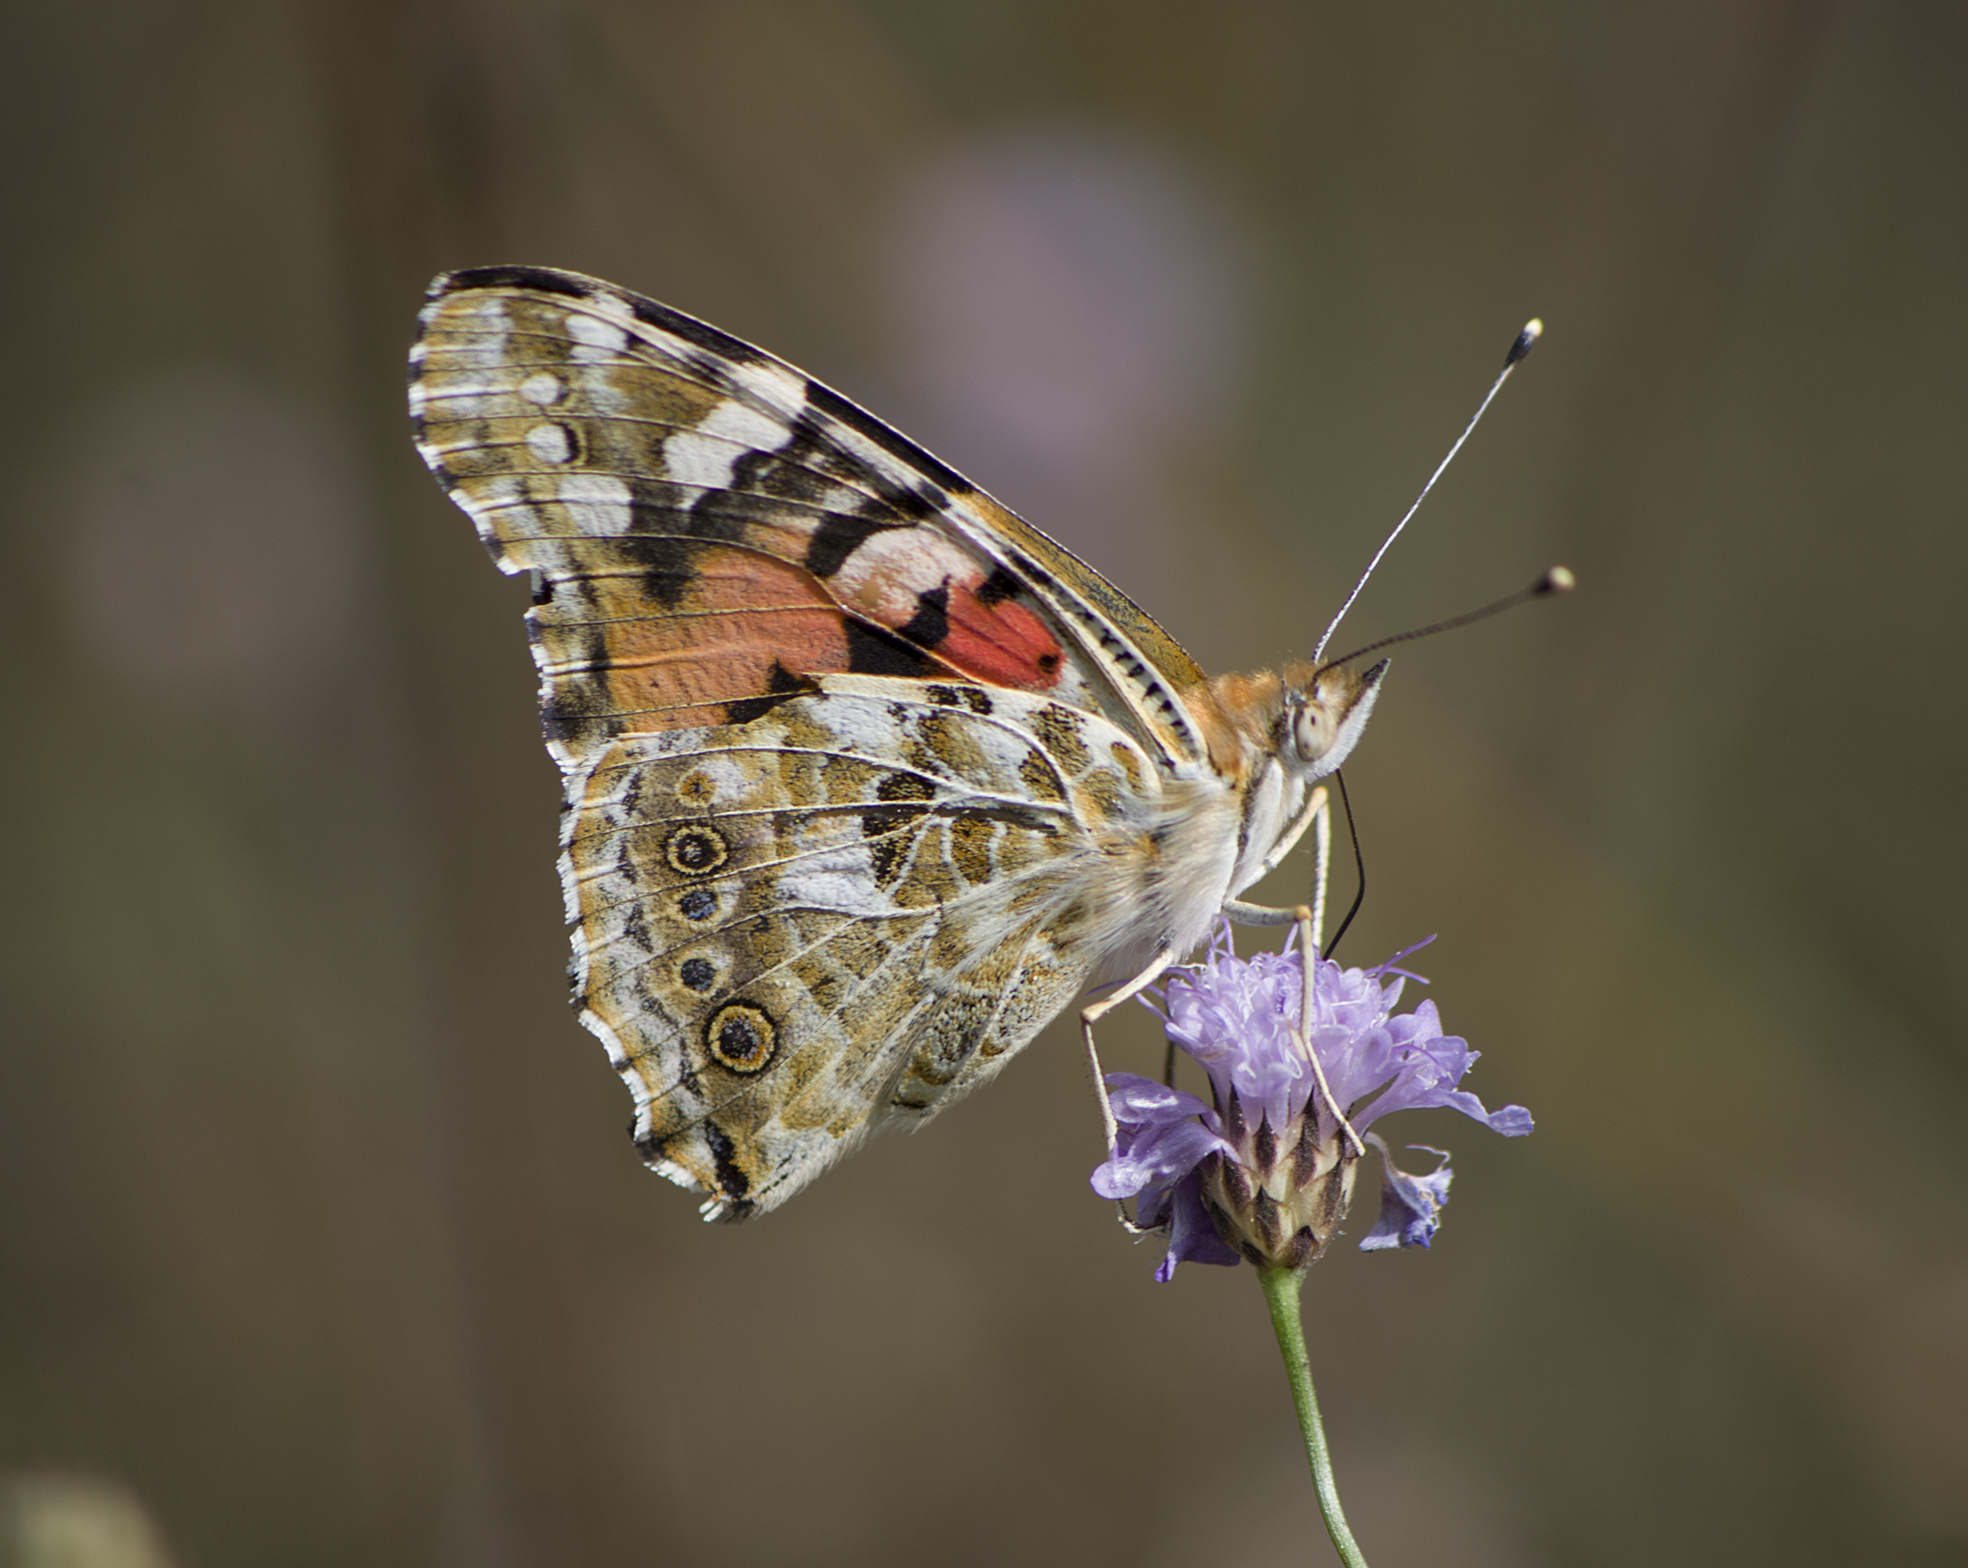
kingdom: Animalia
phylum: Arthropoda
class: Insecta
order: Lepidoptera
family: Nymphalidae
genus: Vanessa
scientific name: Vanessa cardui
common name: Painted lady
